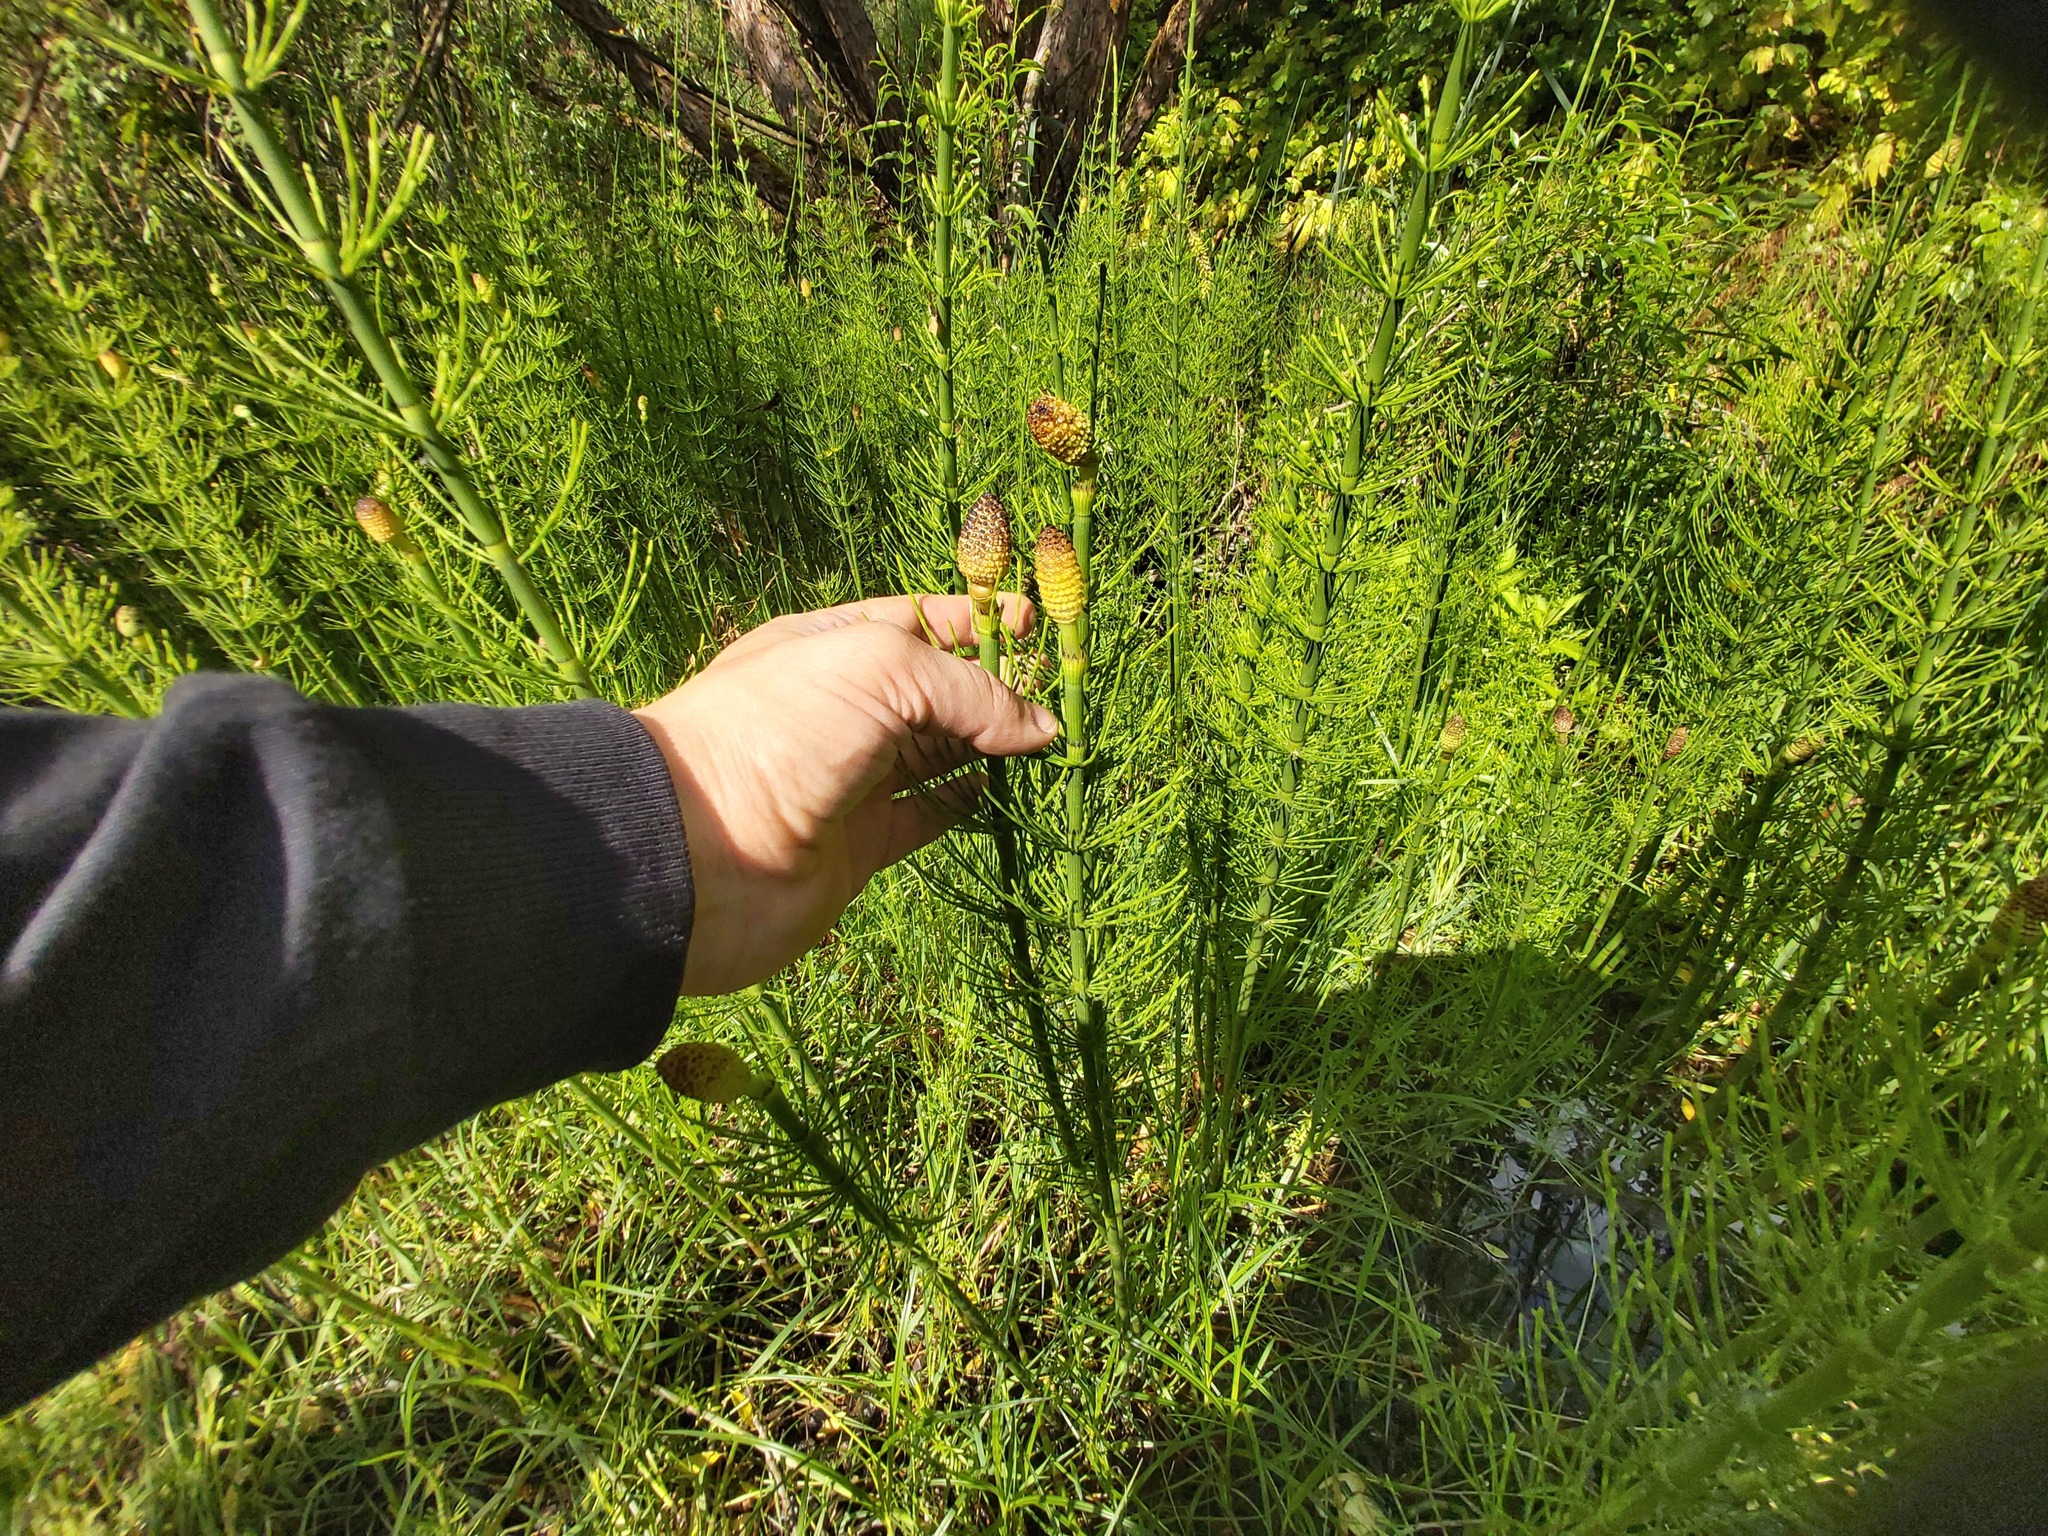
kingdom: Plantae
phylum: Tracheophyta
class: Polypodiopsida
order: Equisetales
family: Equisetaceae
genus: Equisetum
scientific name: Equisetum fluviatile
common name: Water horsetail
